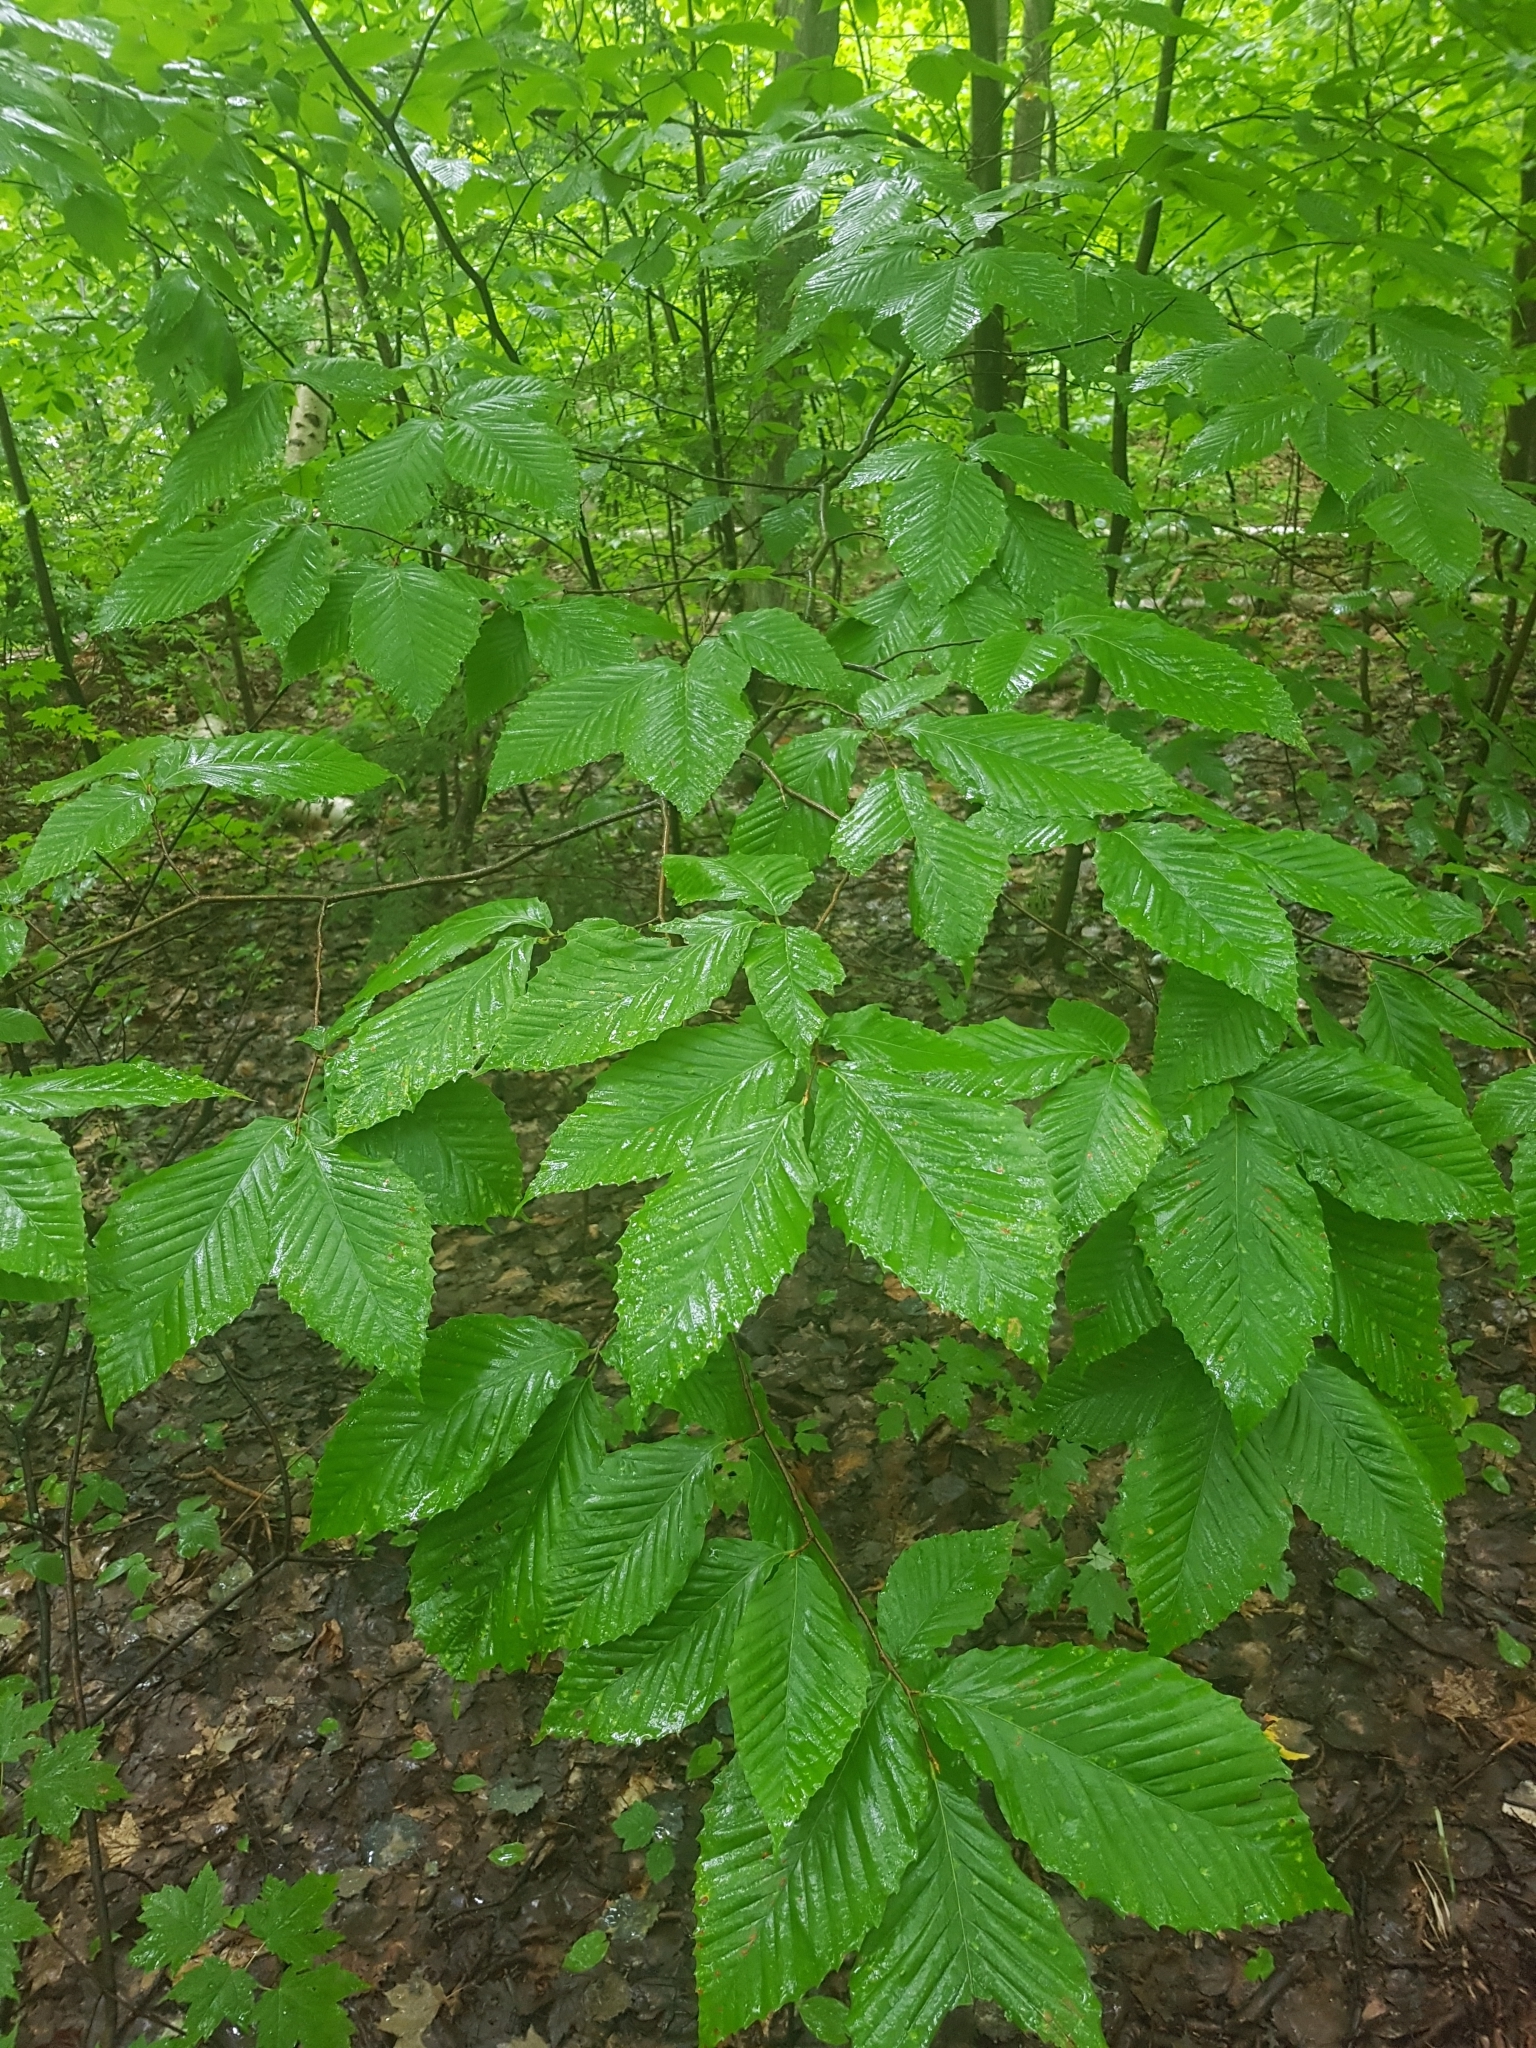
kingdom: Plantae
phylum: Tracheophyta
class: Magnoliopsida
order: Fagales
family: Fagaceae
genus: Fagus
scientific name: Fagus grandifolia
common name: American beech
